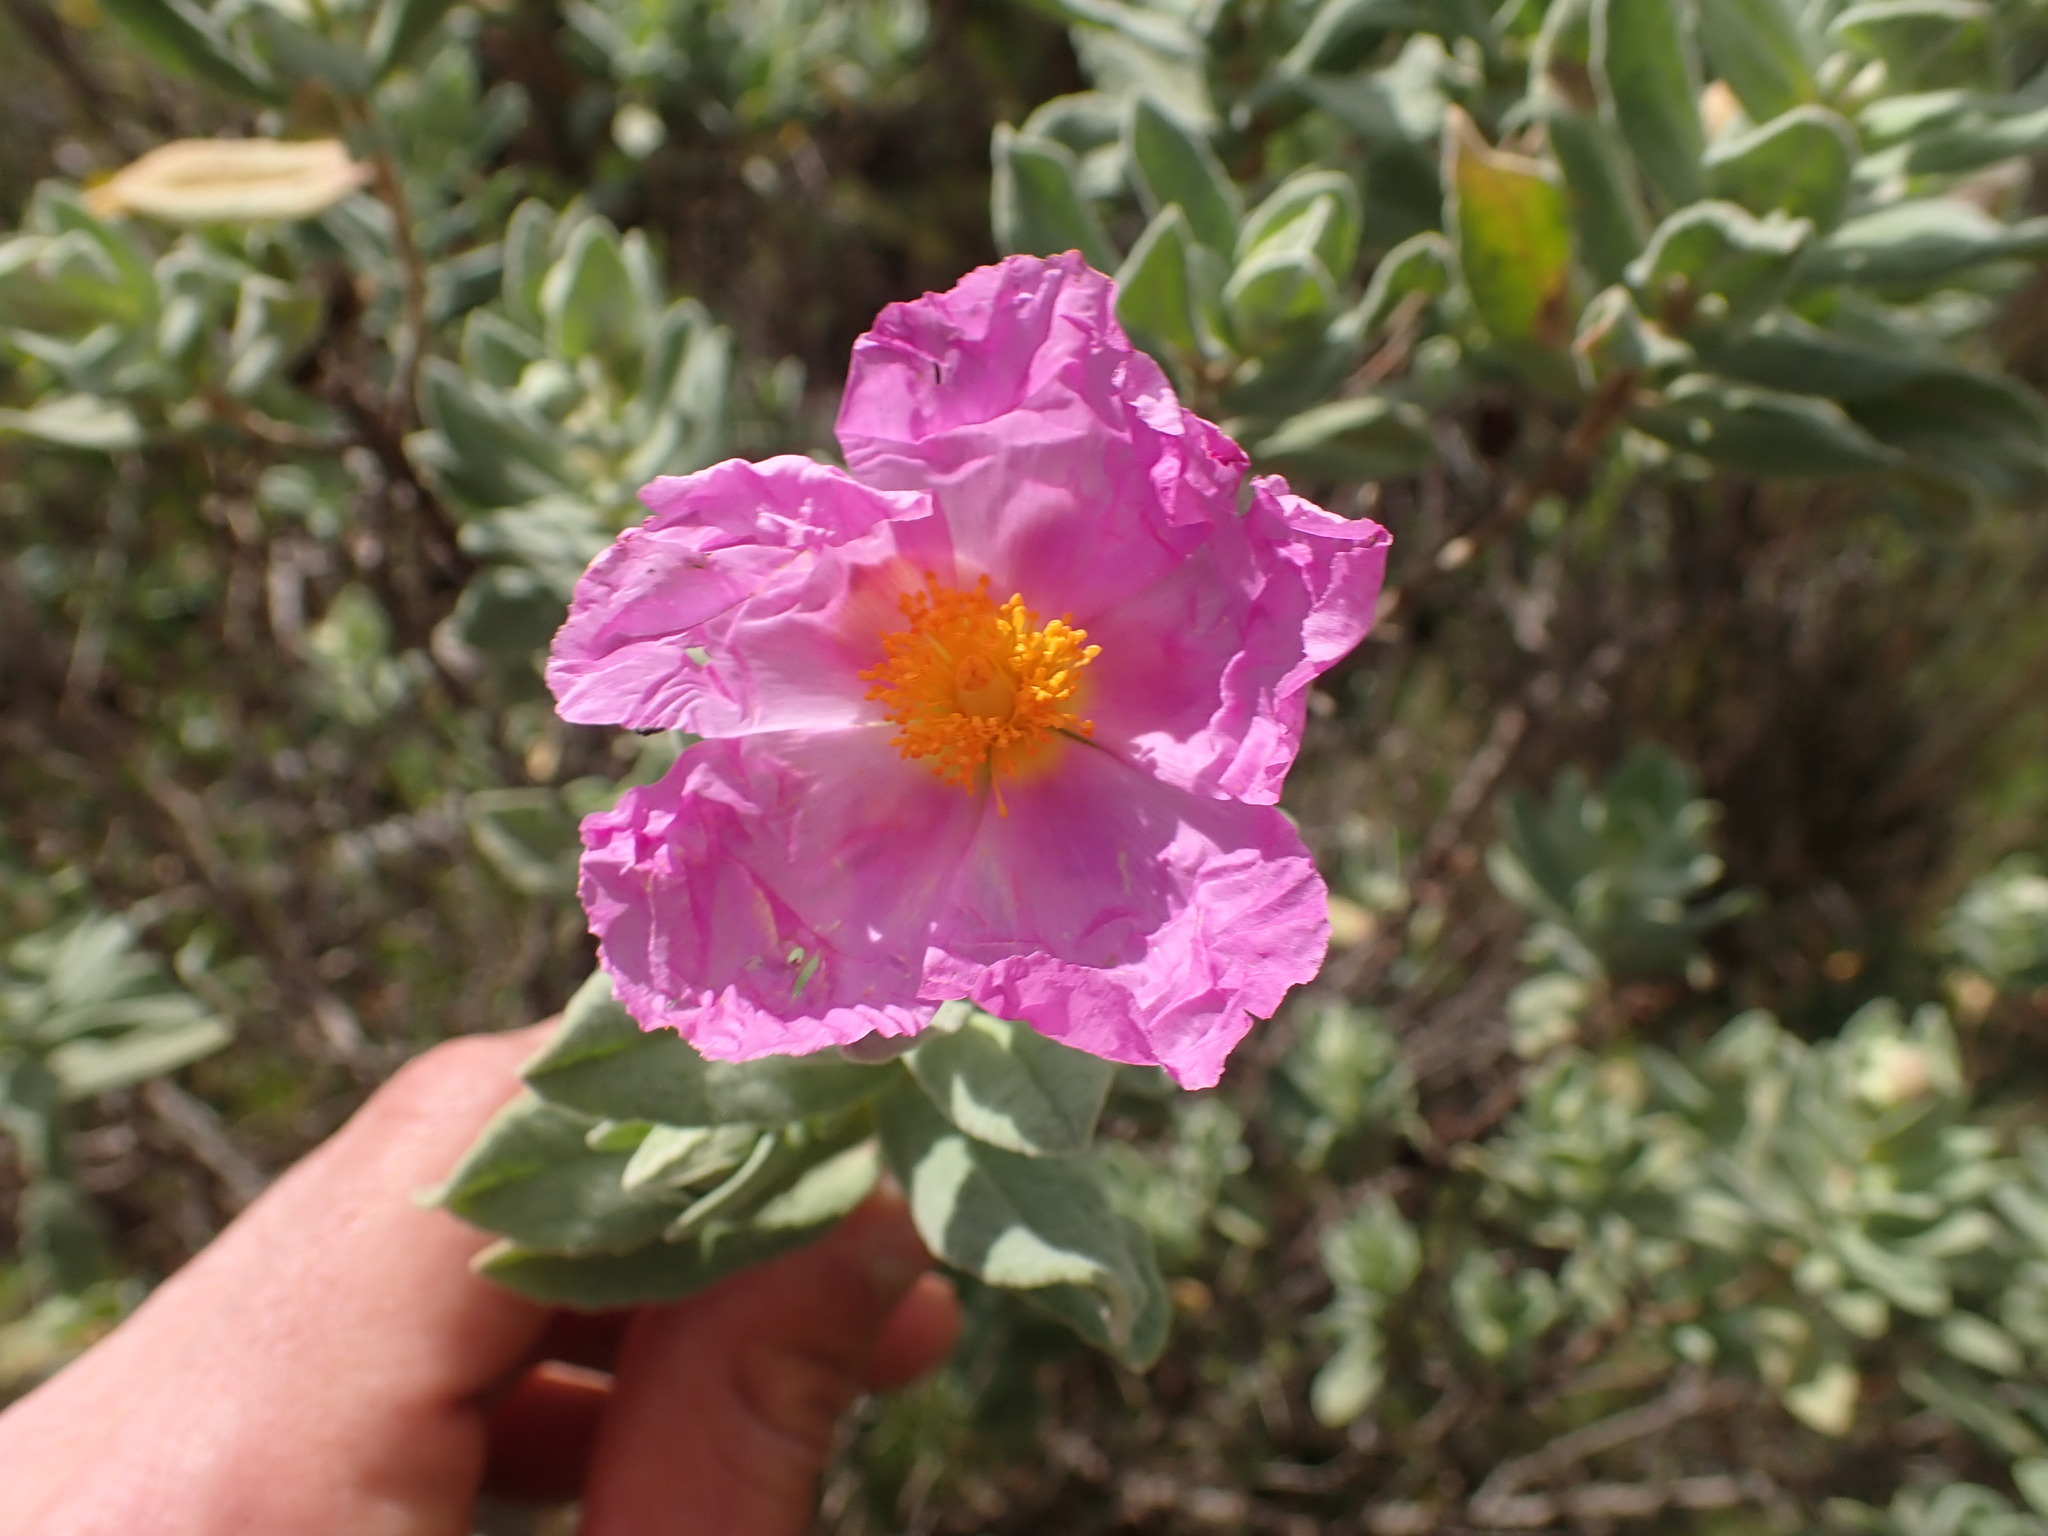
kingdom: Plantae
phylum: Tracheophyta
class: Magnoliopsida
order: Malvales
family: Cistaceae
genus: Cistus
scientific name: Cistus albidus
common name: White-leaf rock-rose
